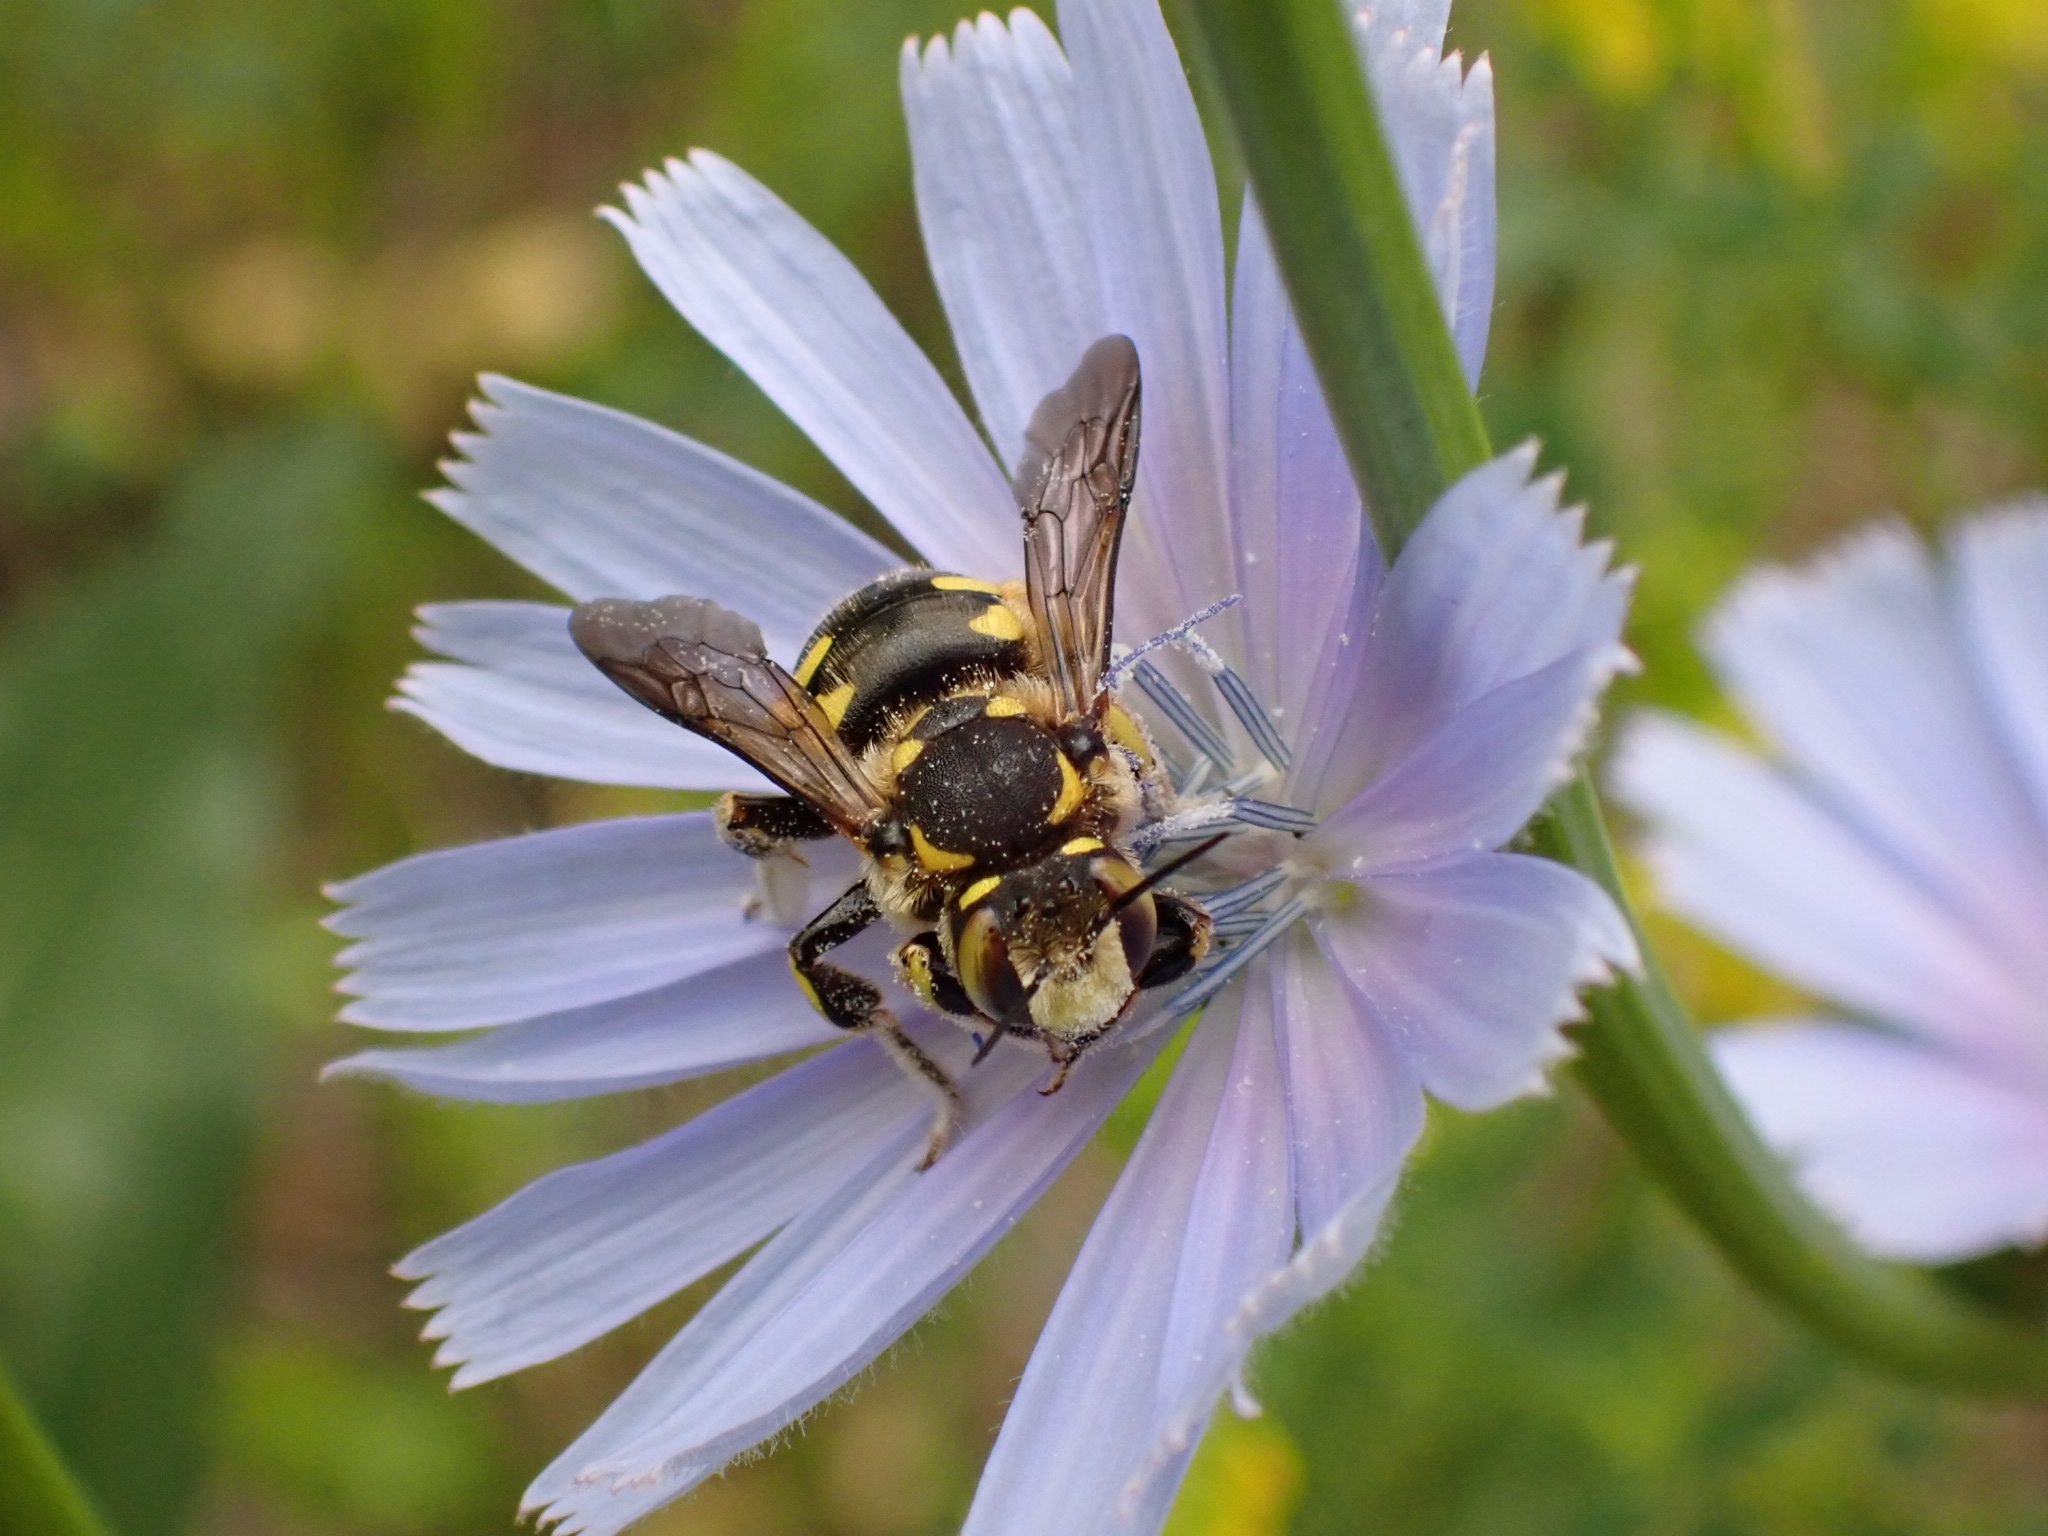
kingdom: Animalia
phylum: Arthropoda
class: Insecta
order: Hymenoptera
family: Megachilidae
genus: Anthidium
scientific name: Anthidium florentinum
